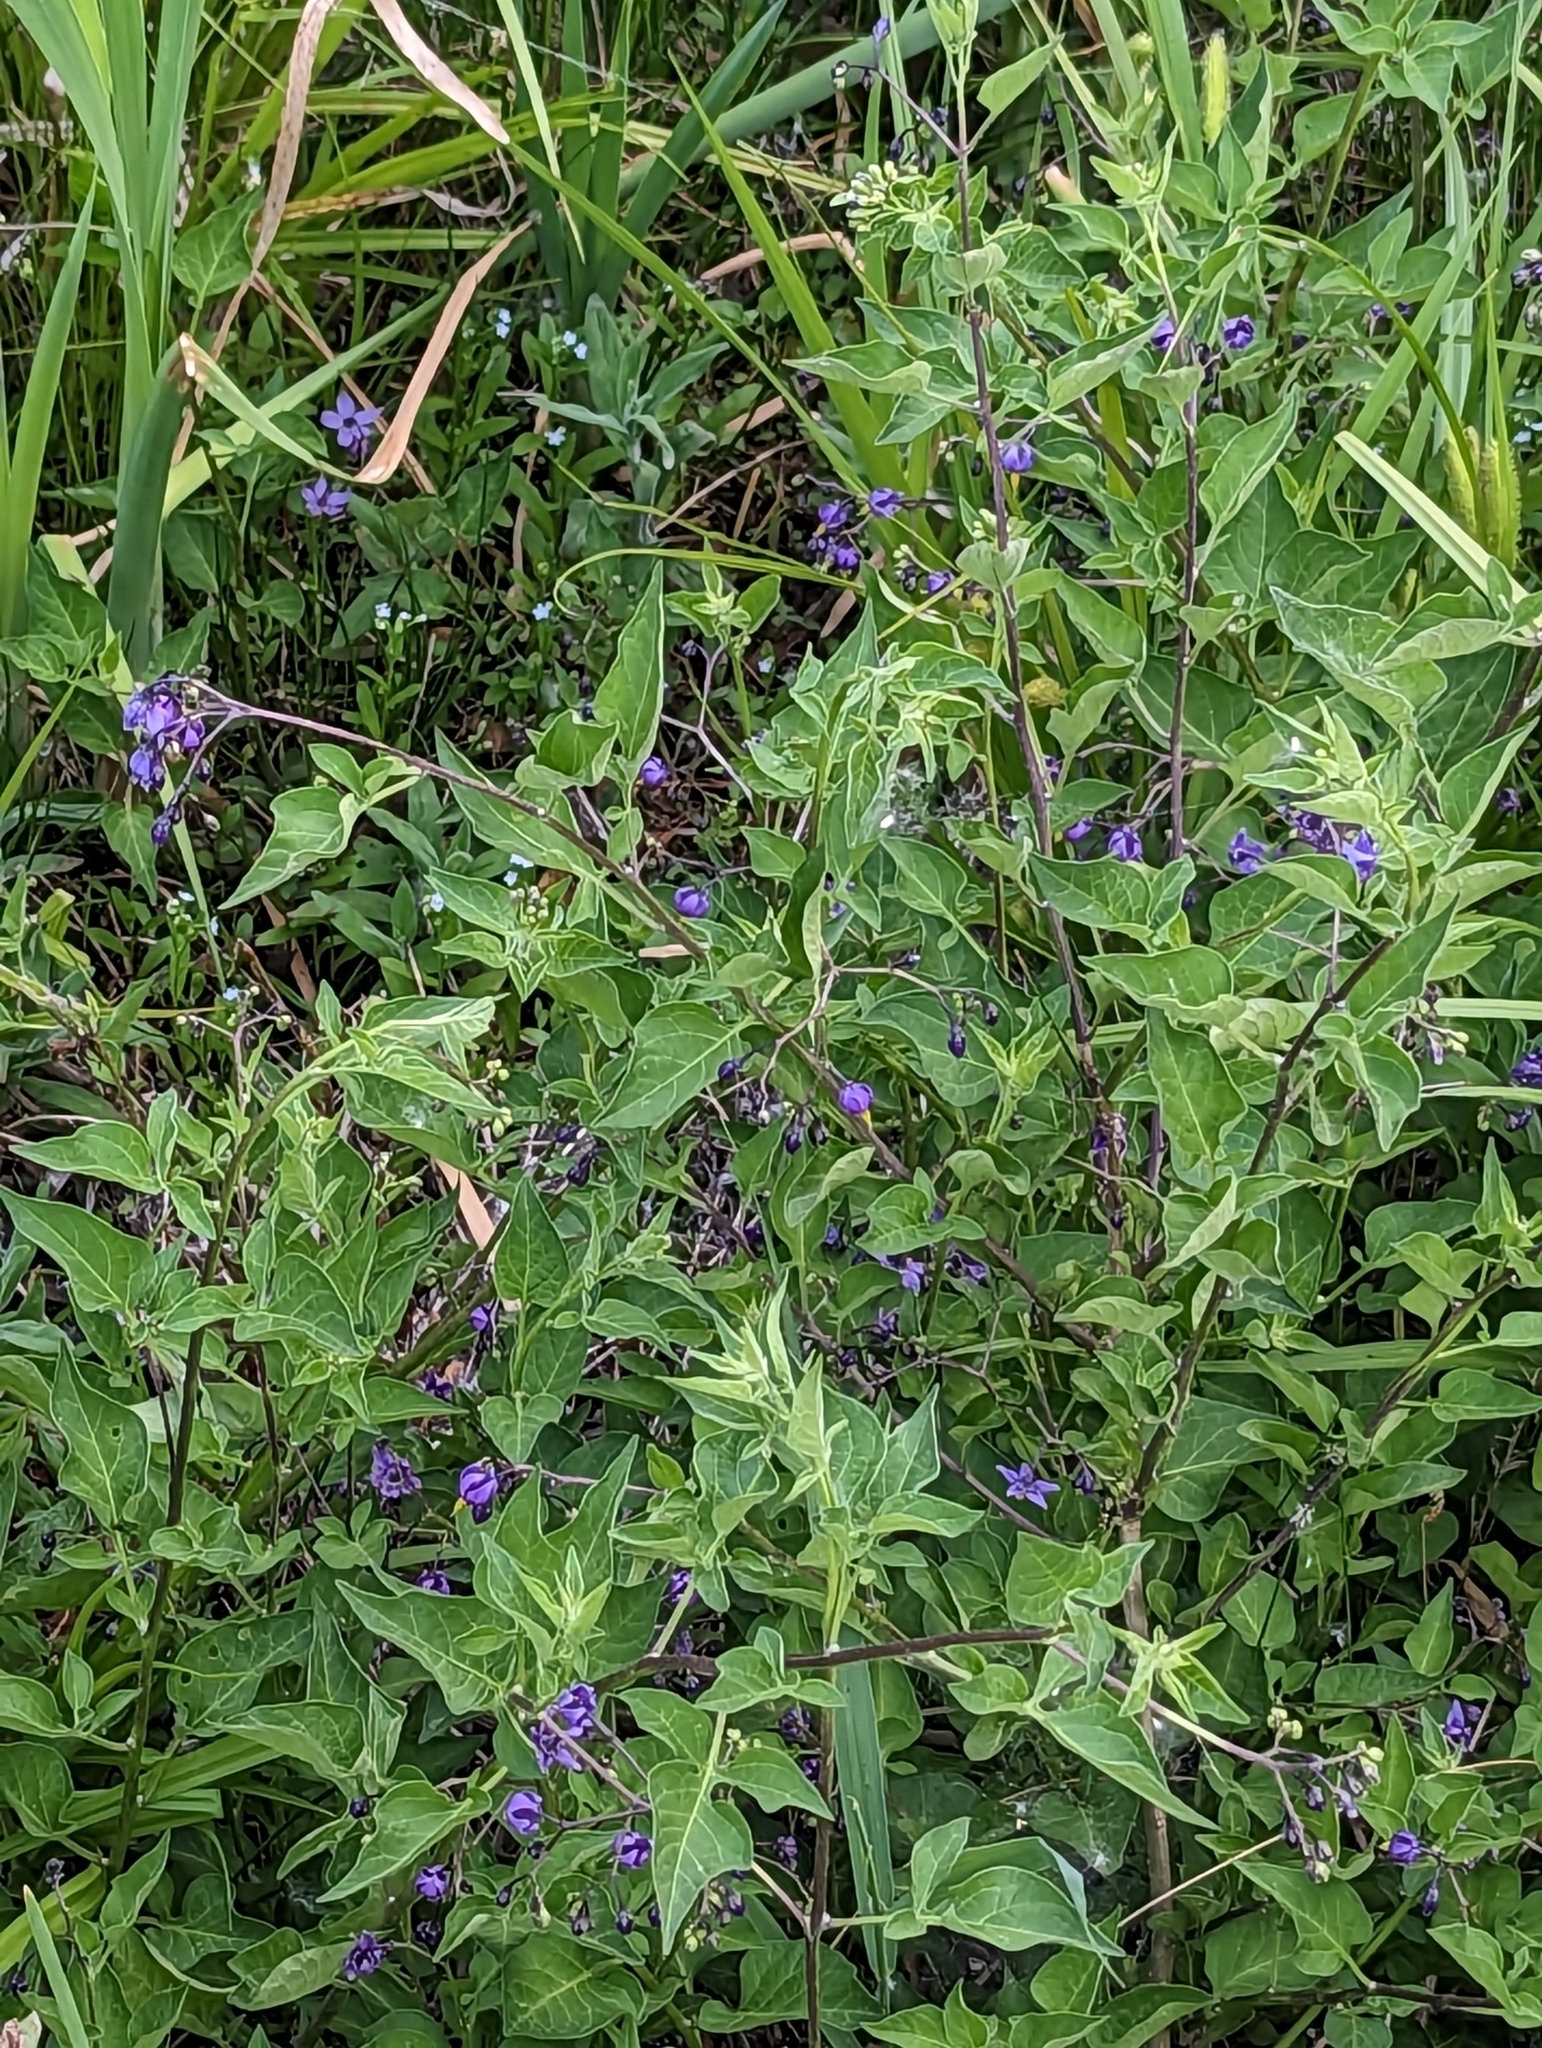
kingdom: Plantae
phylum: Tracheophyta
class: Magnoliopsida
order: Solanales
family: Solanaceae
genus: Solanum
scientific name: Solanum dulcamara
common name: Climbing nightshade
